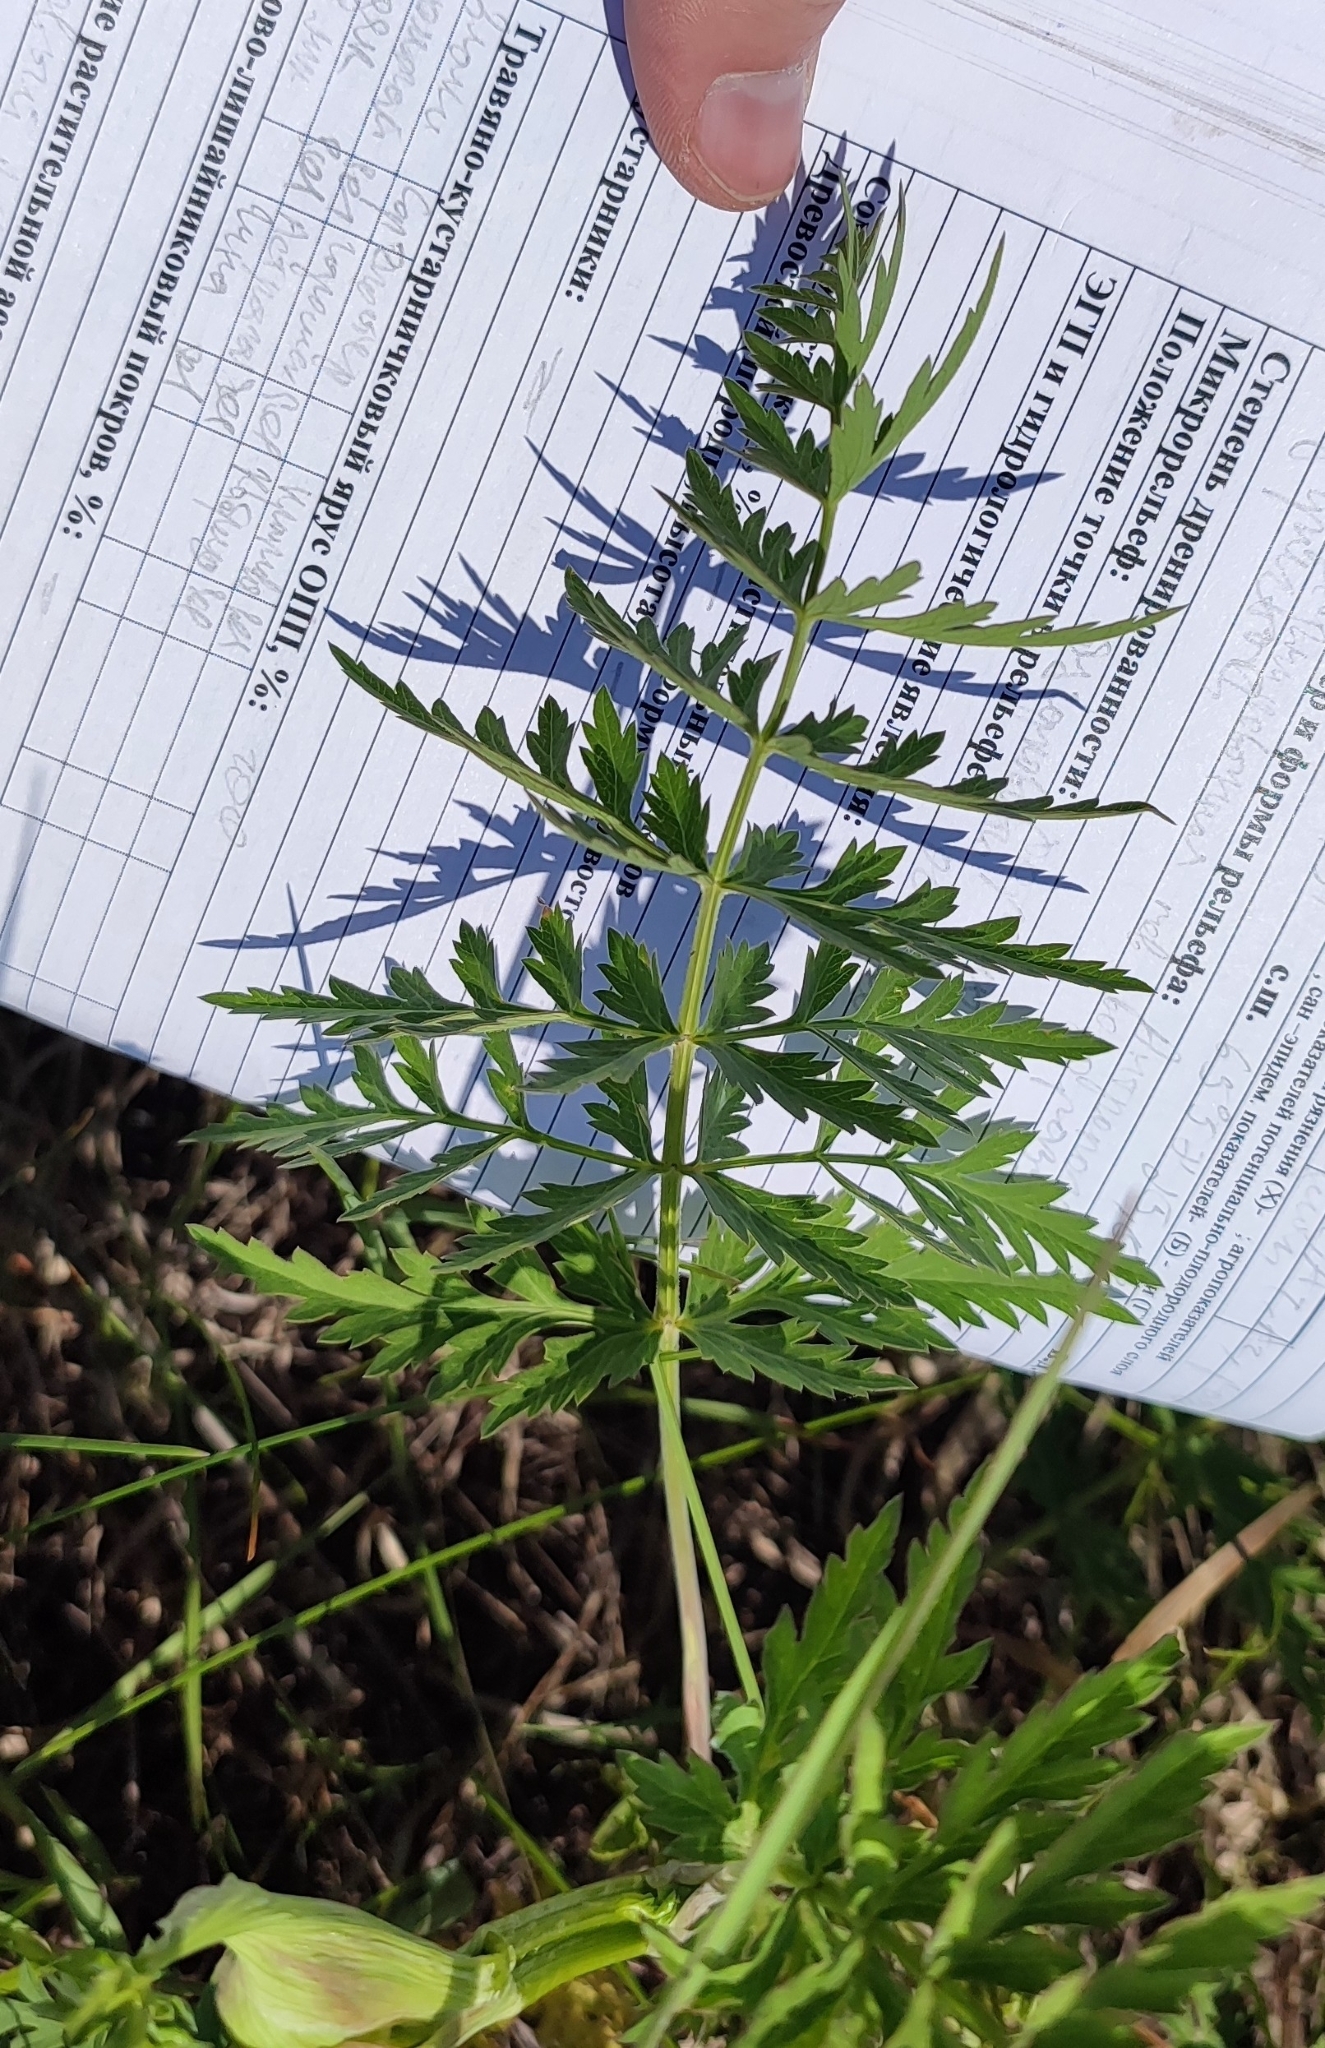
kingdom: Plantae
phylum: Tracheophyta
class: Magnoliopsida
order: Apiales
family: Apiaceae
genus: Seseli
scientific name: Seseli libanotis
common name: Mooncarrot
